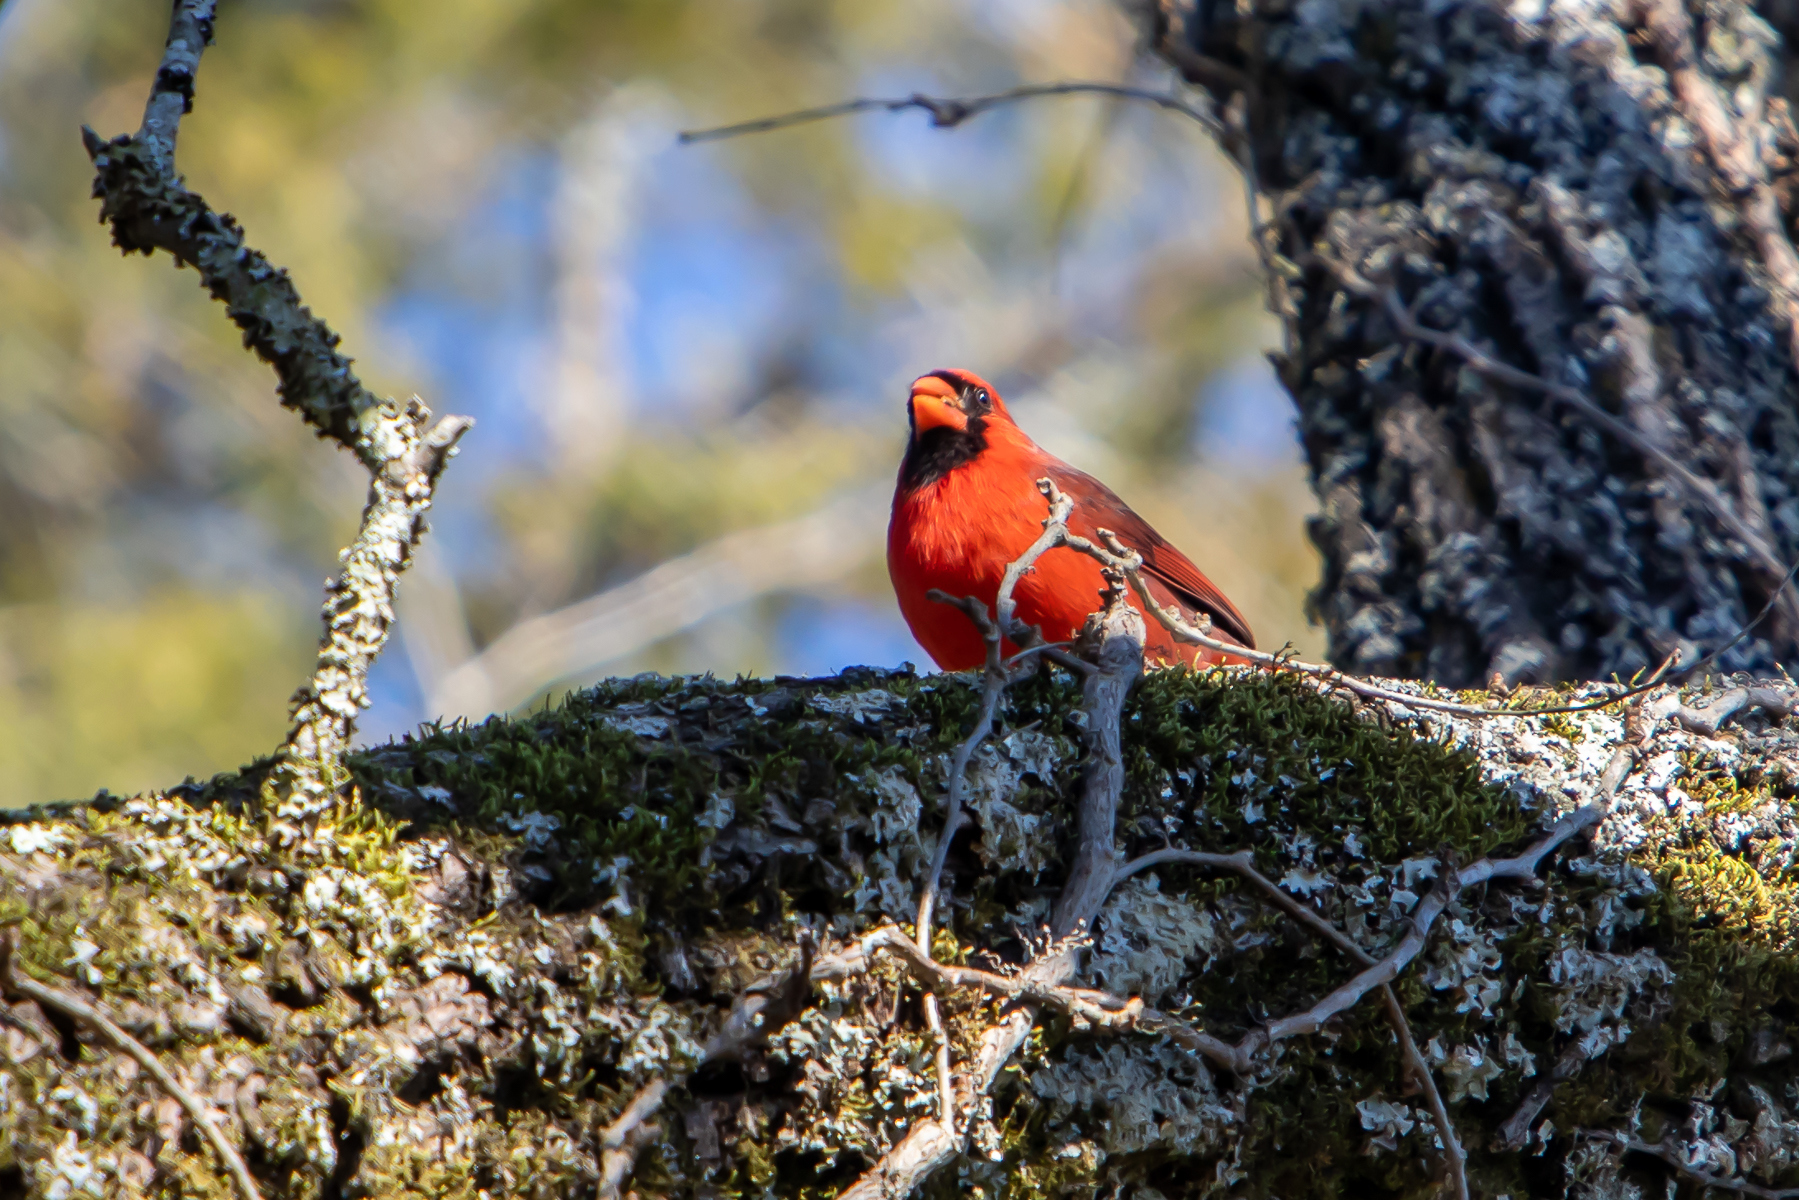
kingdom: Animalia
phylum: Chordata
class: Aves
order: Passeriformes
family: Cardinalidae
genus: Cardinalis
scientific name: Cardinalis cardinalis
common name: Northern cardinal
